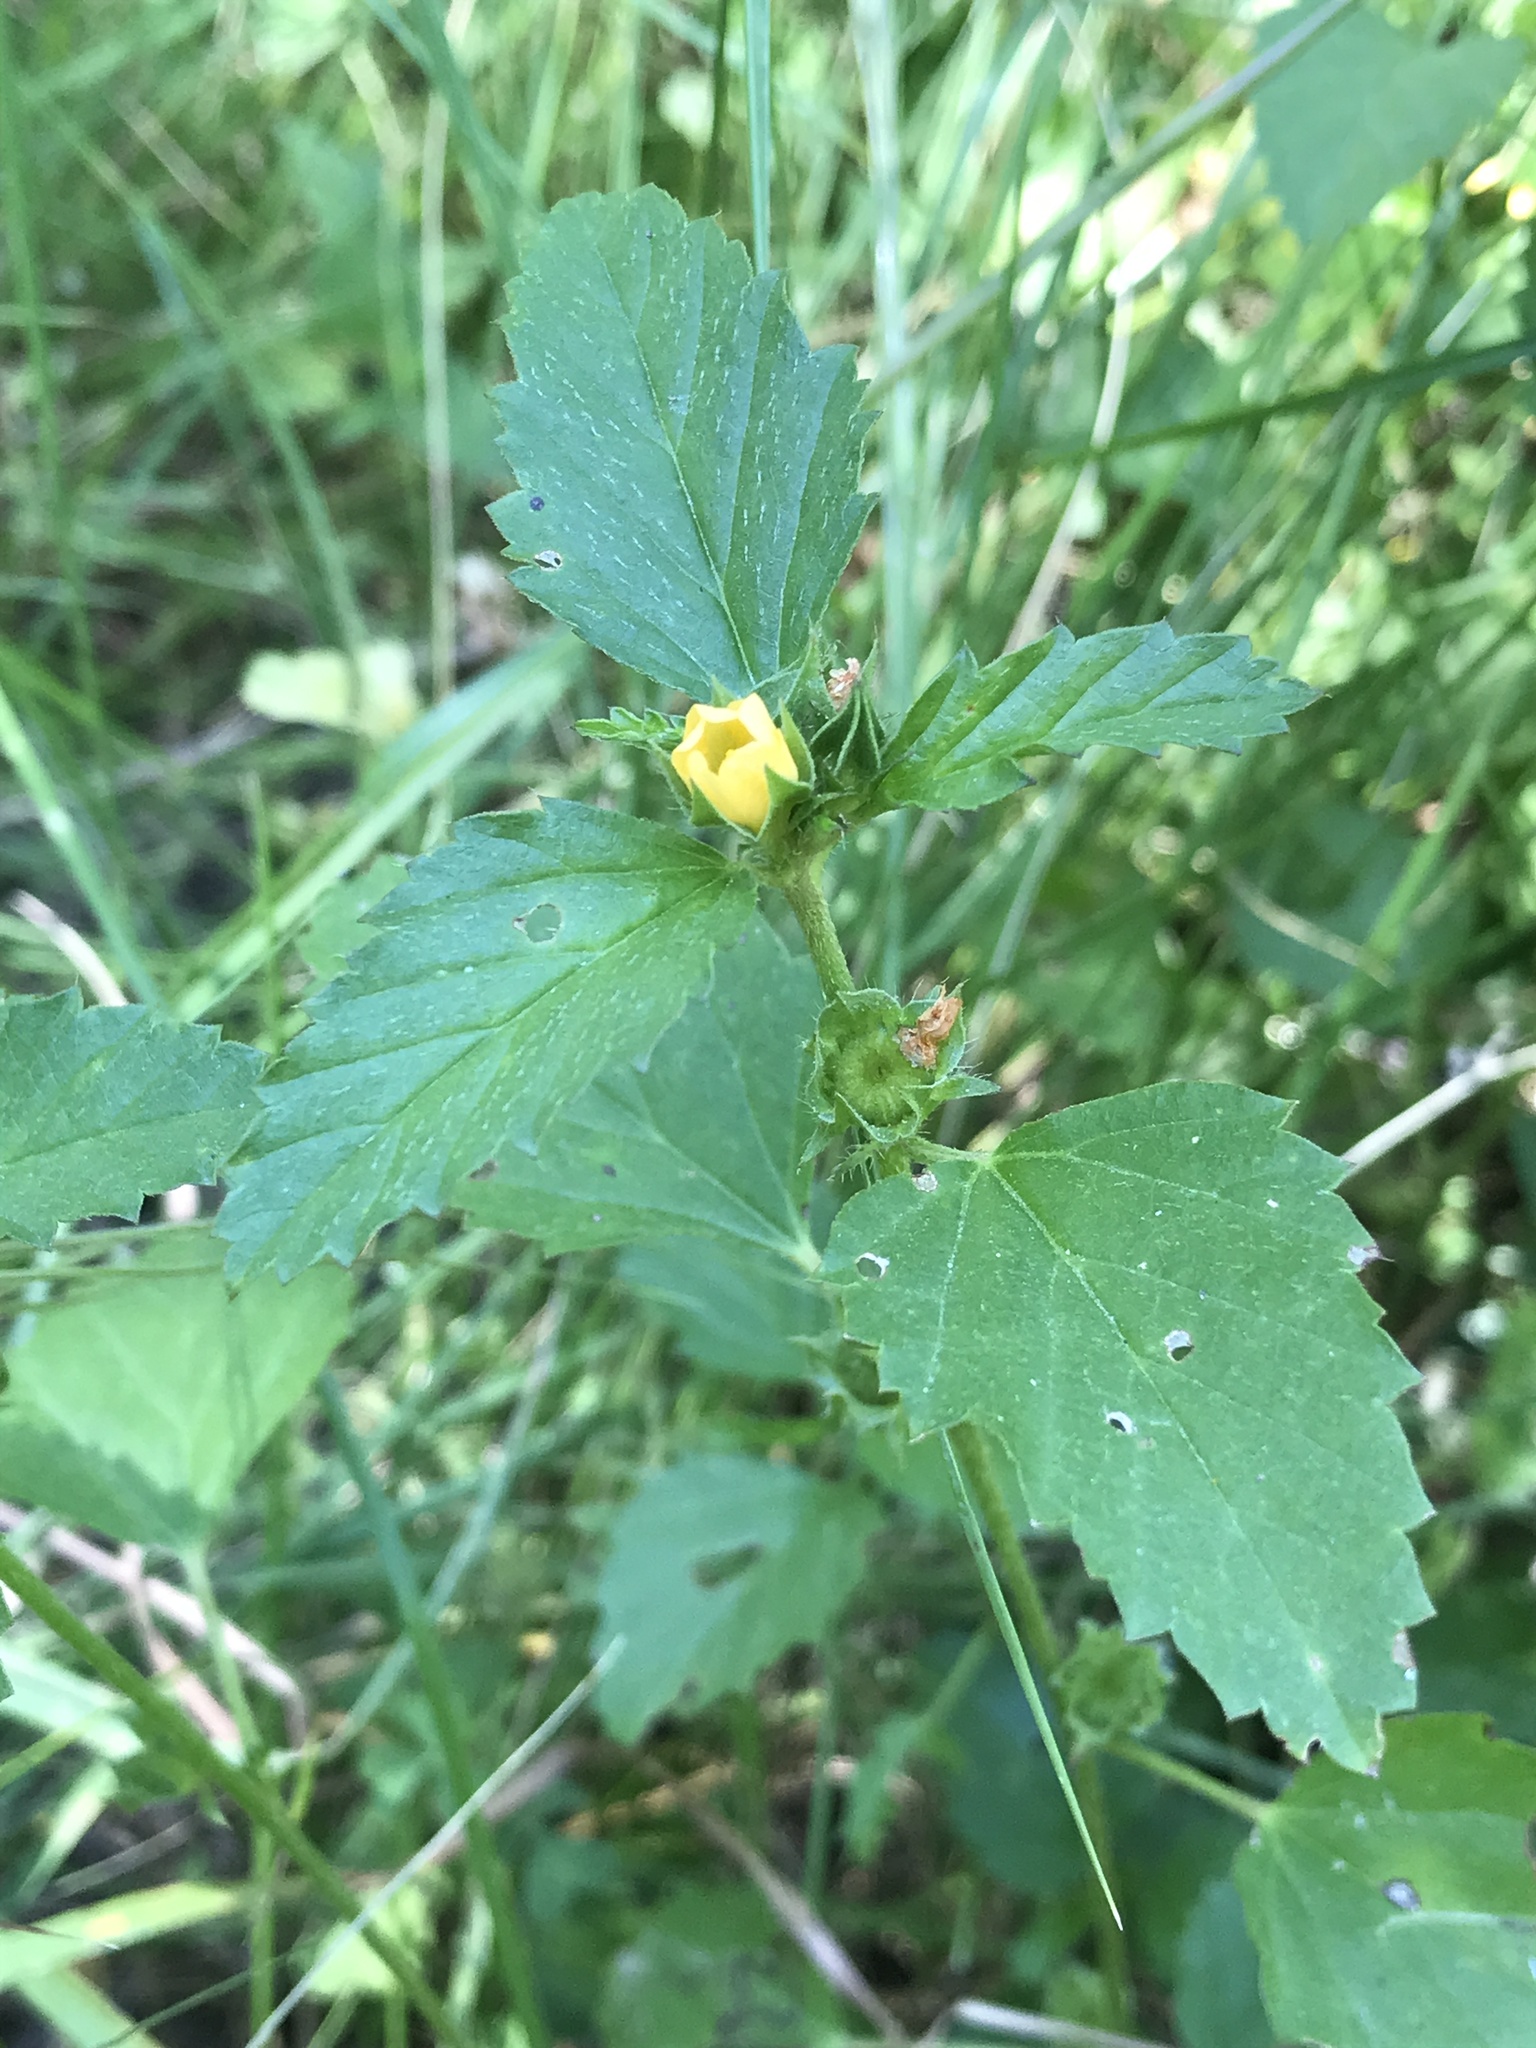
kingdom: Plantae
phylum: Tracheophyta
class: Magnoliopsida
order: Malvales
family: Malvaceae
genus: Malvastrum
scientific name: Malvastrum coromandelianum
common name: Threelobe false mallow
